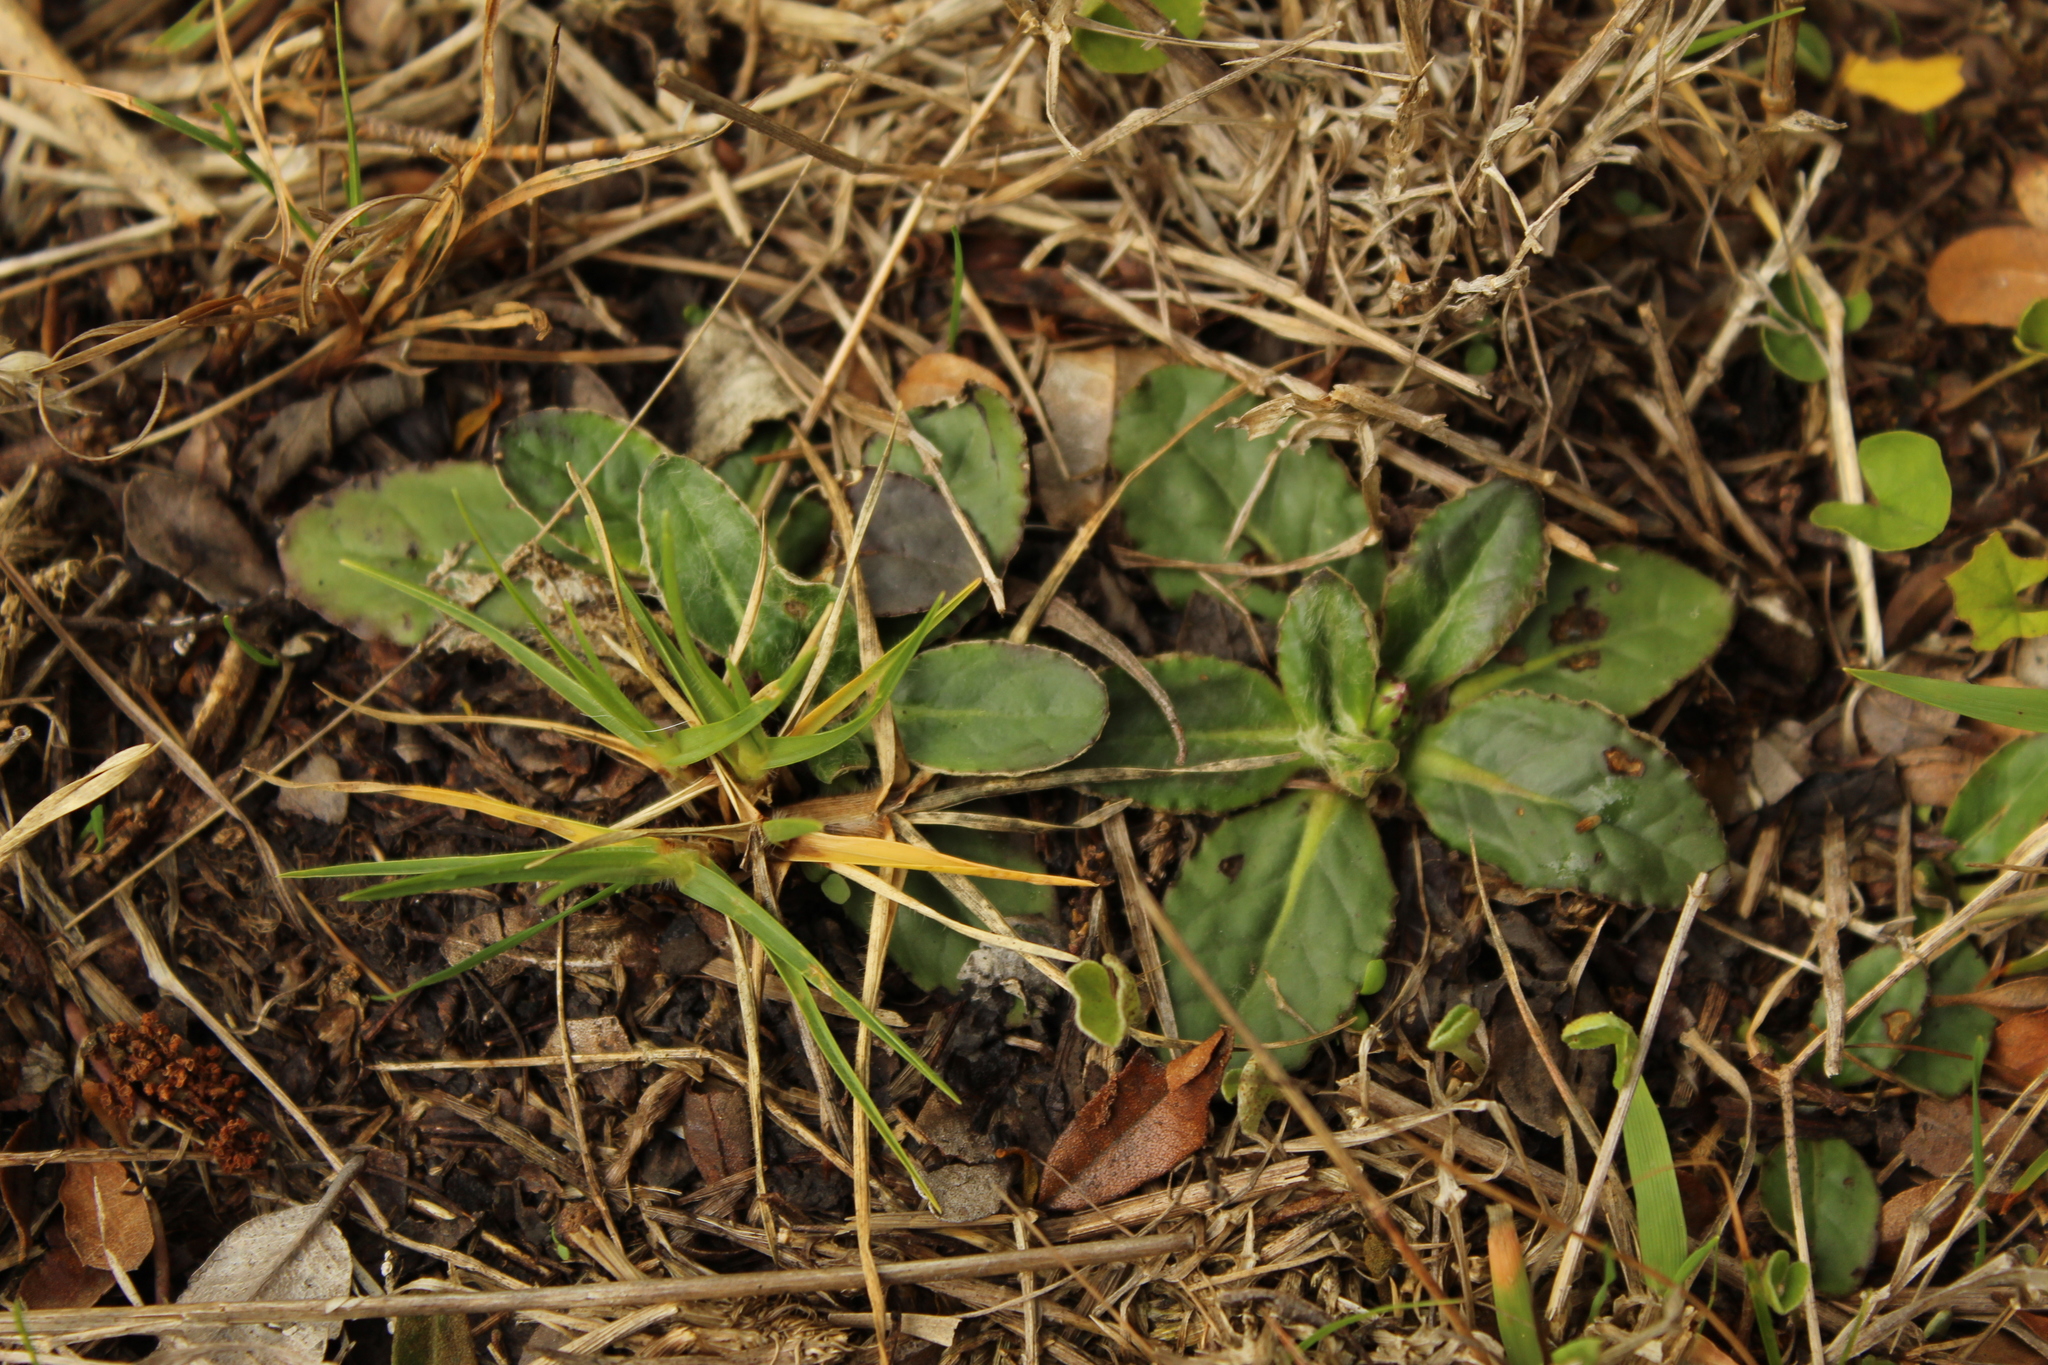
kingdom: Plantae
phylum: Tracheophyta
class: Magnoliopsida
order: Asterales
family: Asteraceae
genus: Chaptalia
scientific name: Chaptalia exscapa
